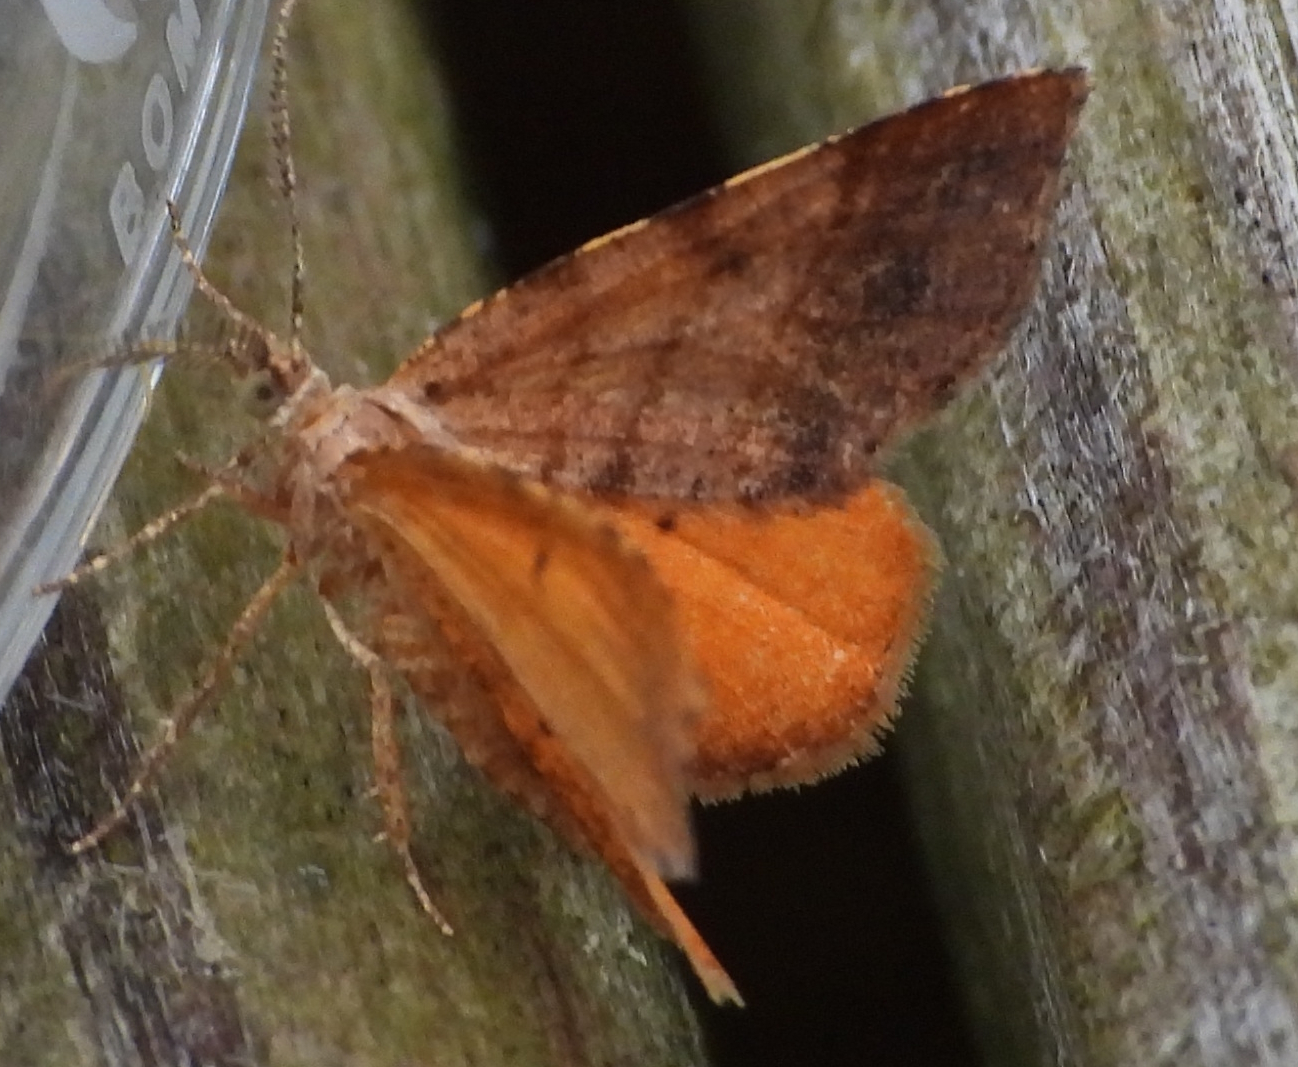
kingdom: Animalia
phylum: Arthropoda
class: Insecta
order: Lepidoptera
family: Geometridae
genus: Mellilla
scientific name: Mellilla xanthometata
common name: Orange wing moth
